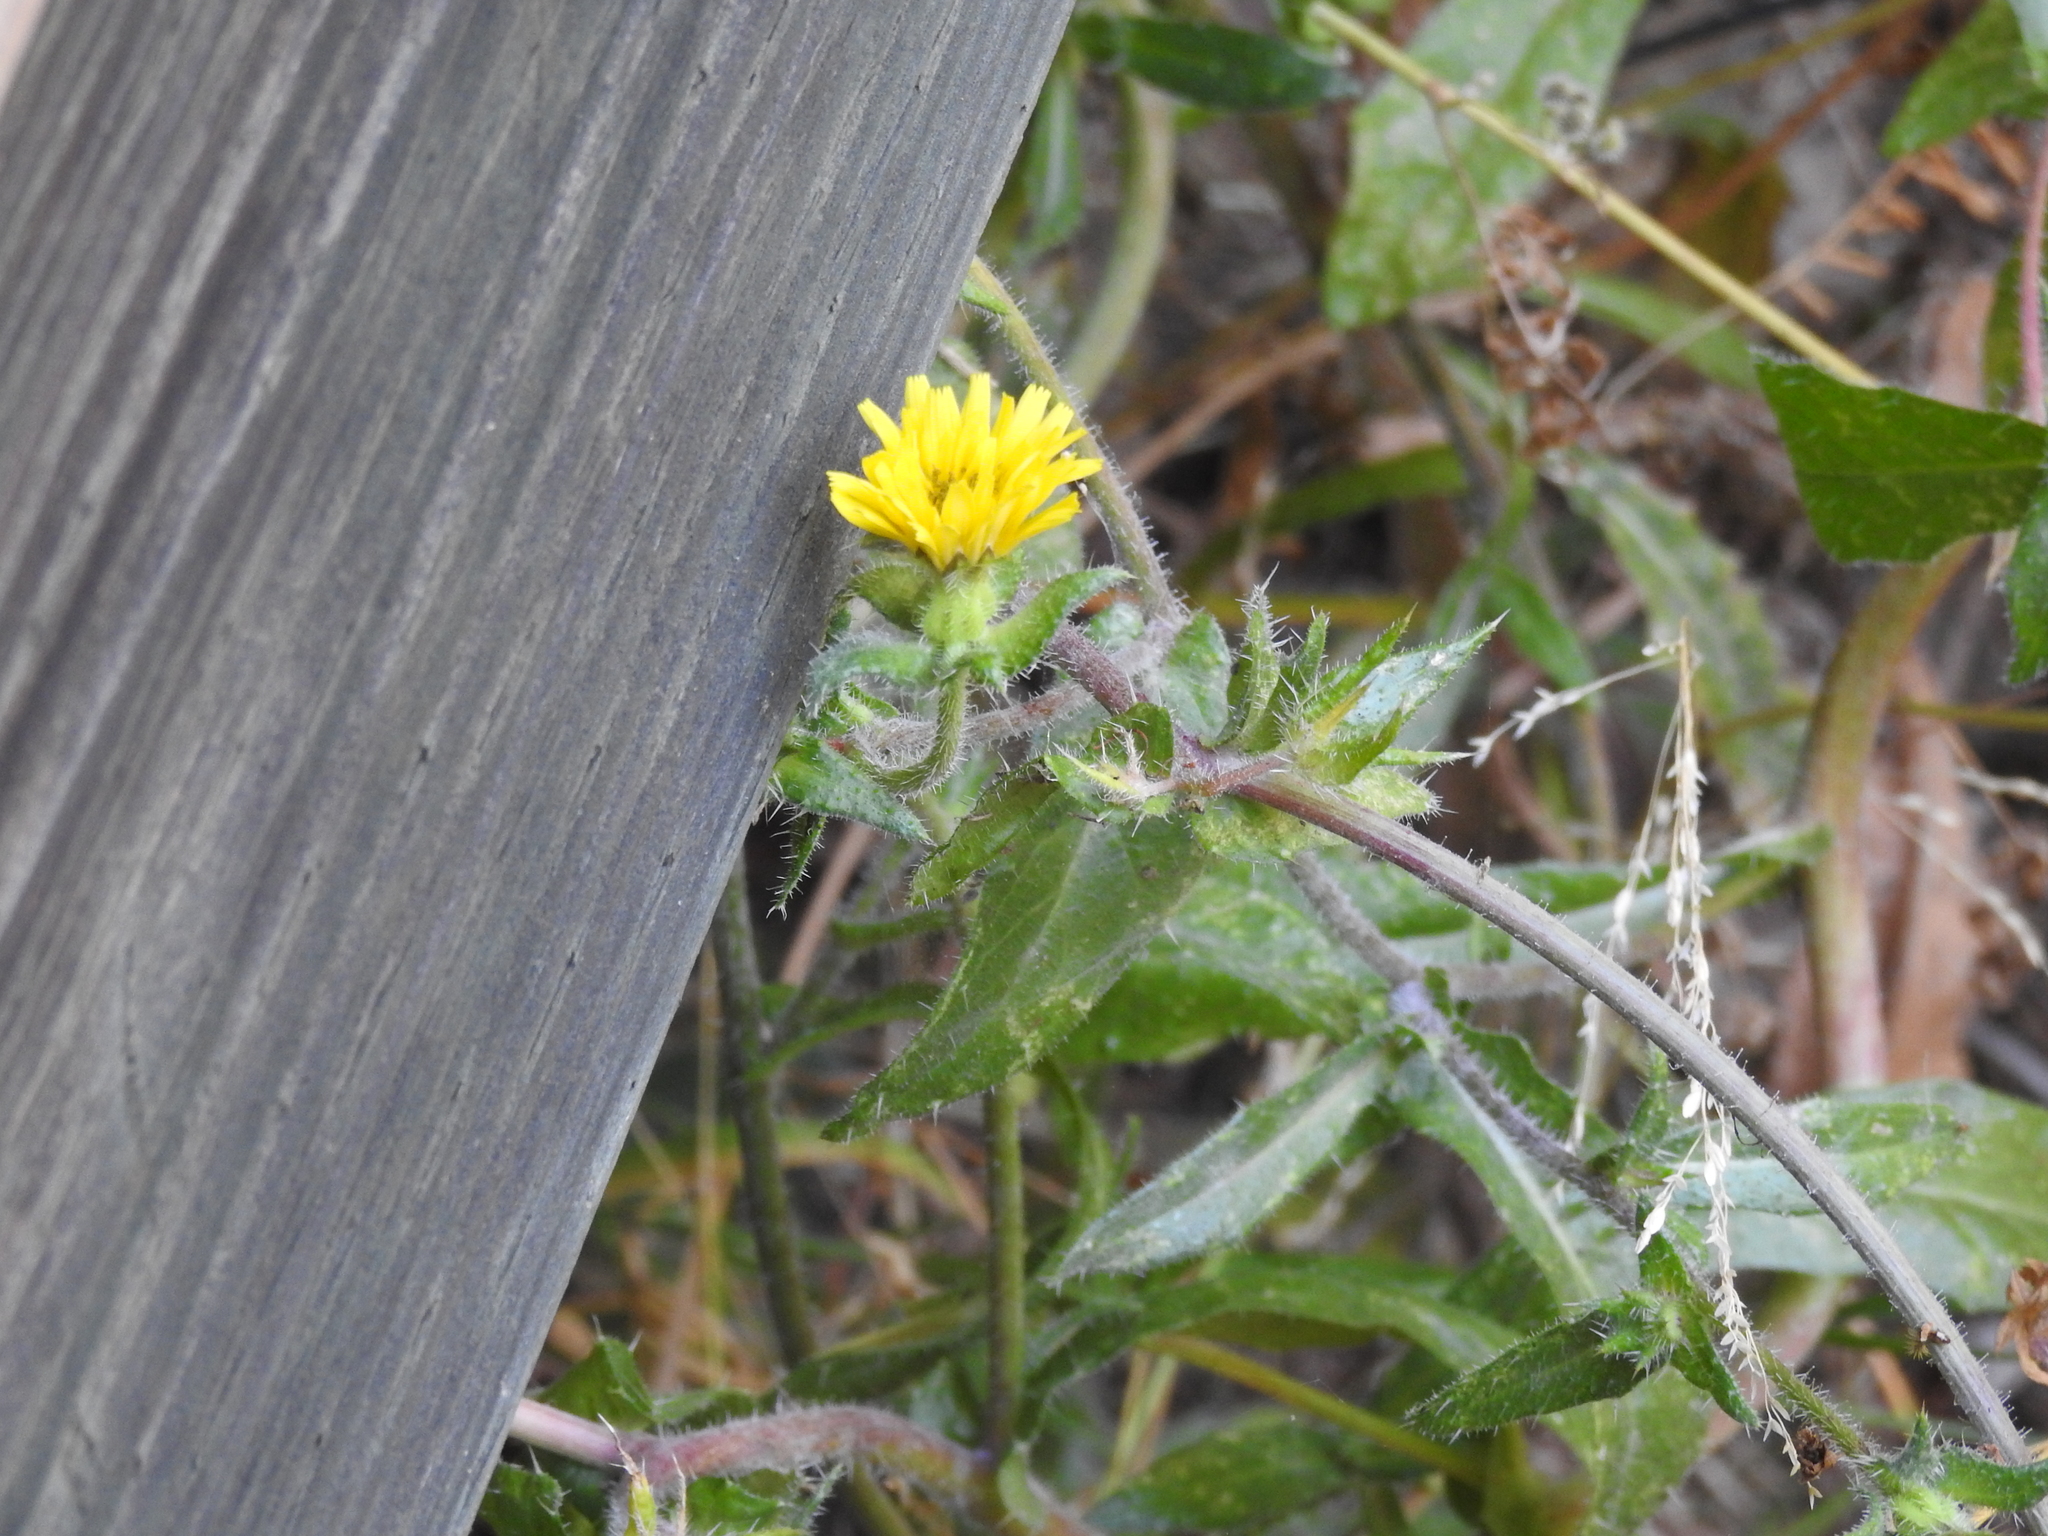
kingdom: Plantae
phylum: Tracheophyta
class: Magnoliopsida
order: Asterales
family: Asteraceae
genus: Helminthotheca
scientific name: Helminthotheca echioides
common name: Ox-tongue
